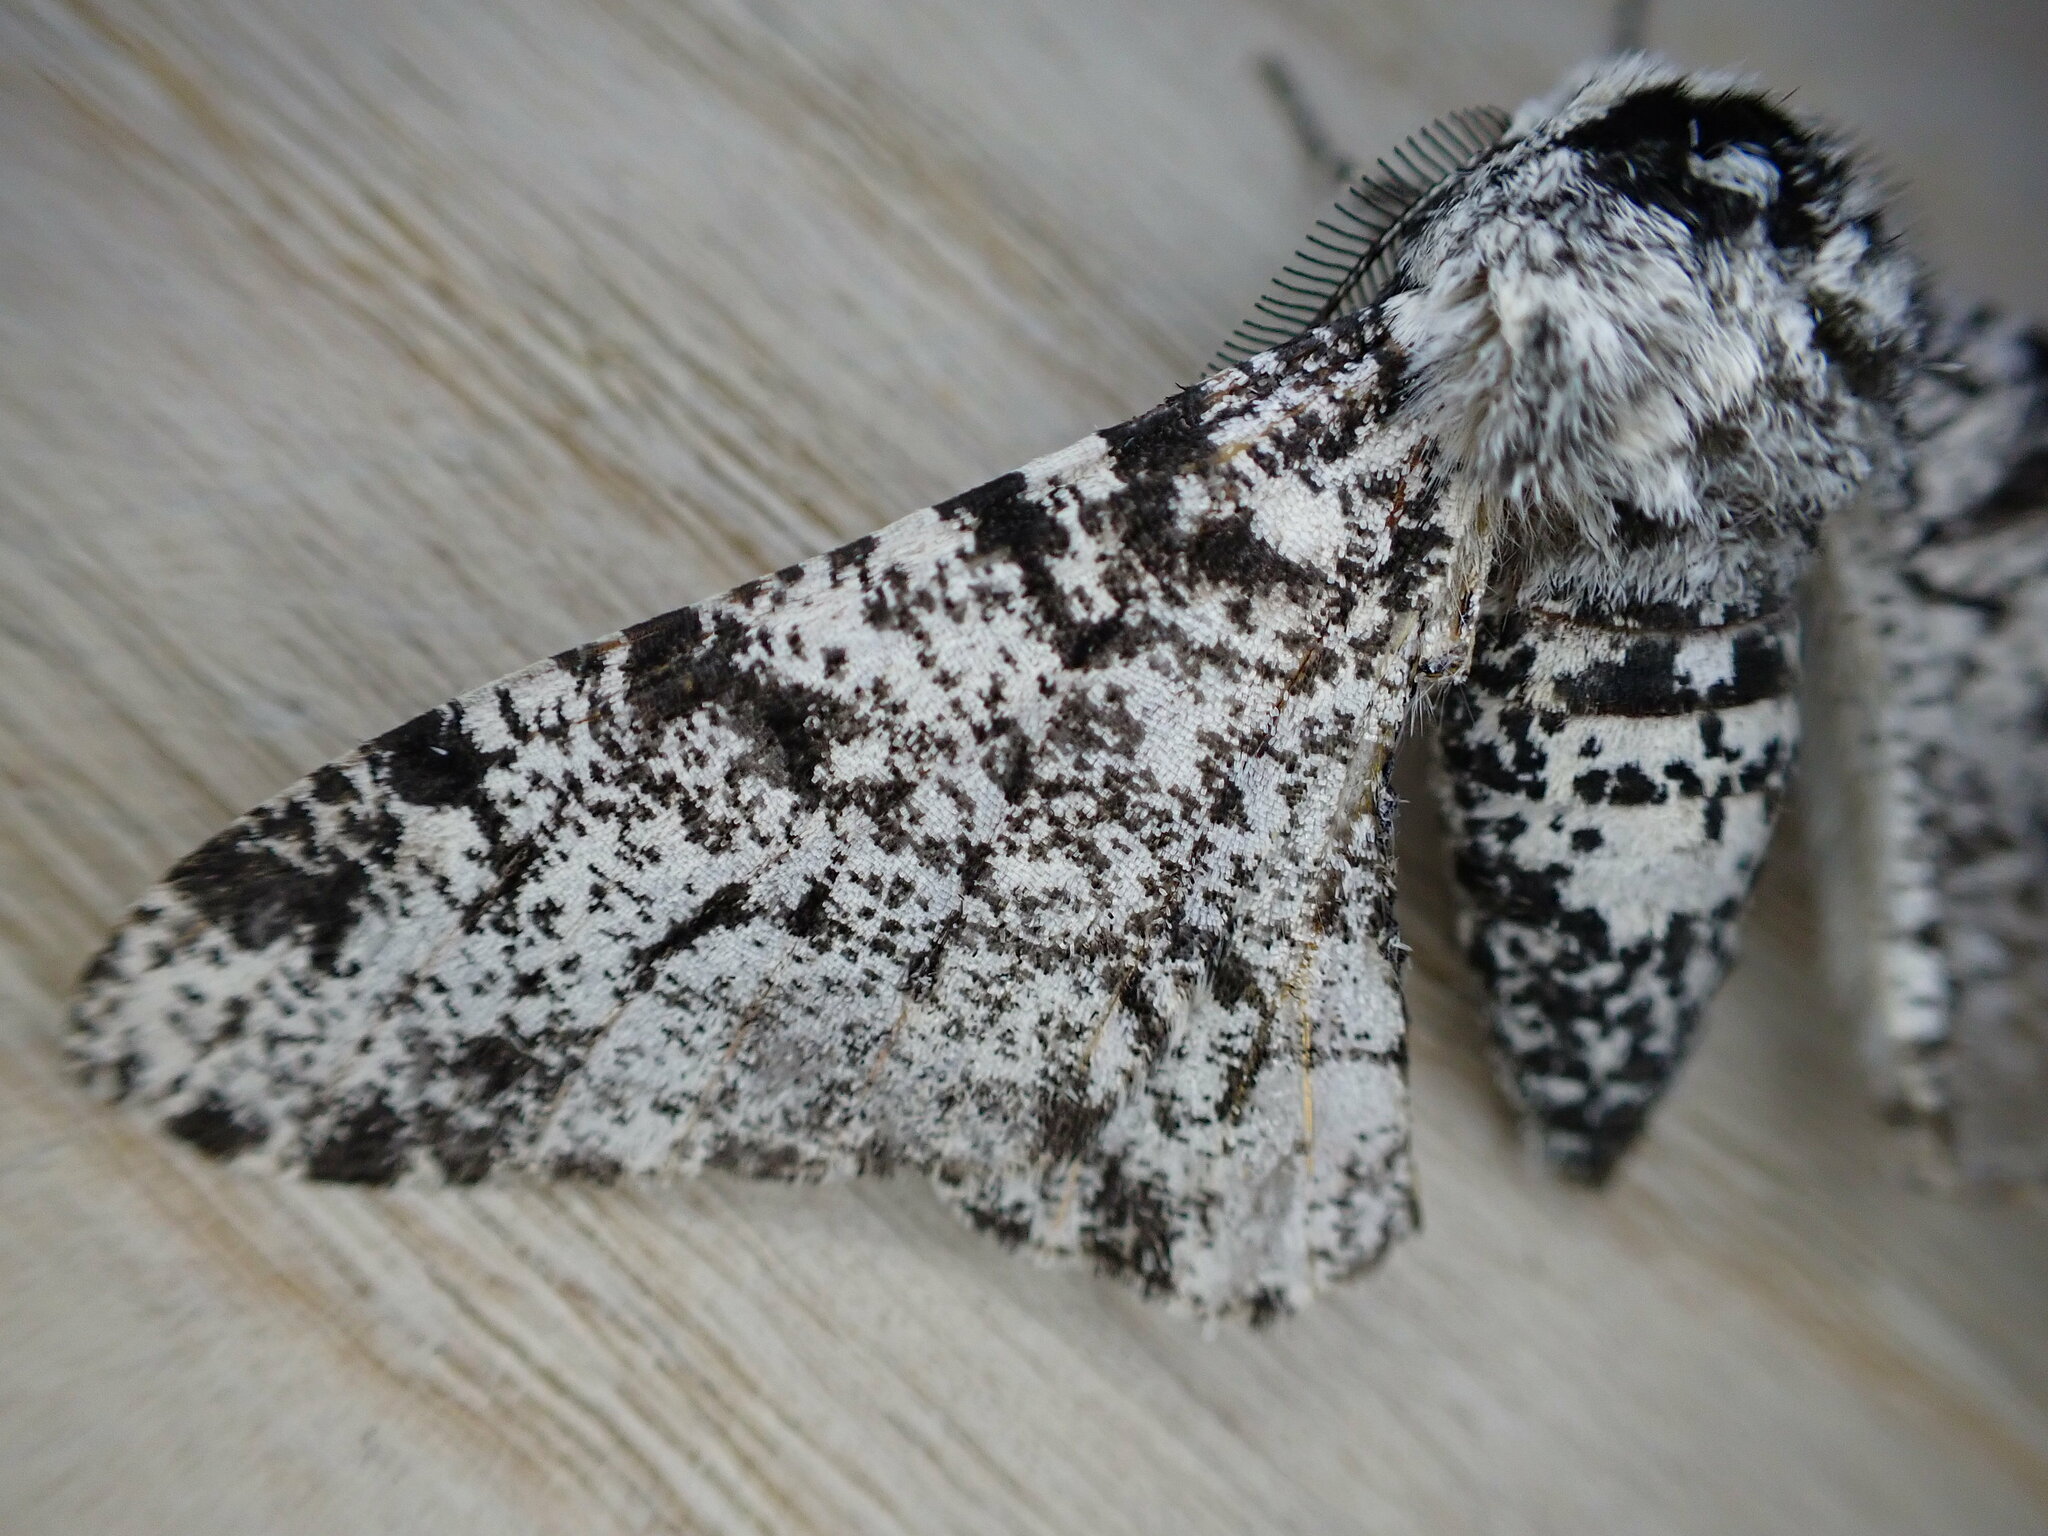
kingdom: Animalia
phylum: Arthropoda
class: Insecta
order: Lepidoptera
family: Geometridae
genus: Biston
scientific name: Biston betularia
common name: Peppered moth
